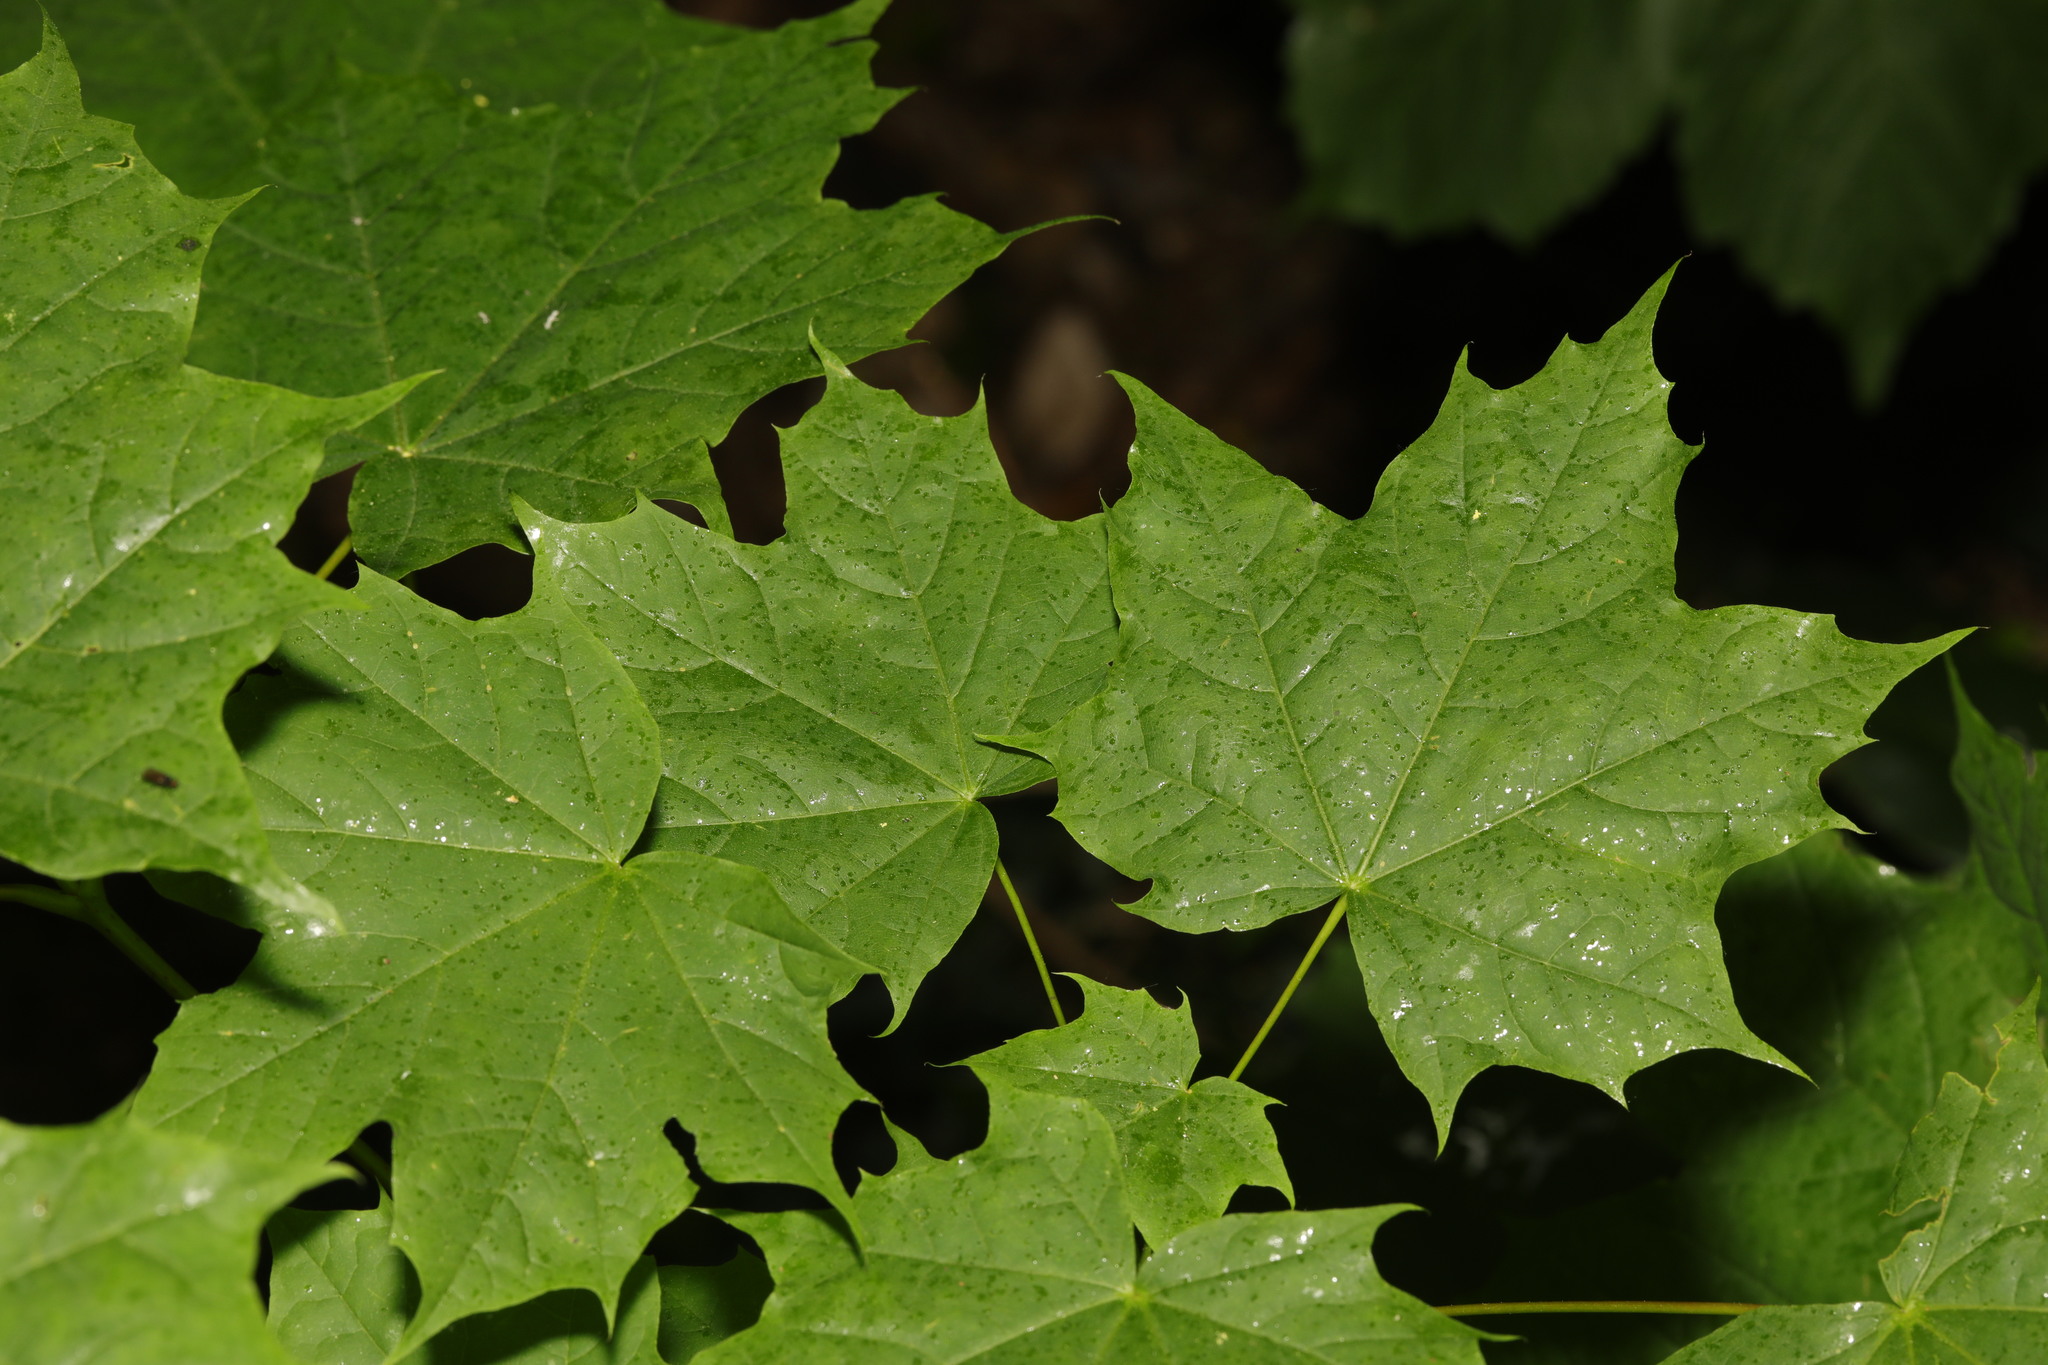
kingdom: Plantae
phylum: Tracheophyta
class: Magnoliopsida
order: Sapindales
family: Sapindaceae
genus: Acer
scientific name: Acer platanoides
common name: Norway maple
